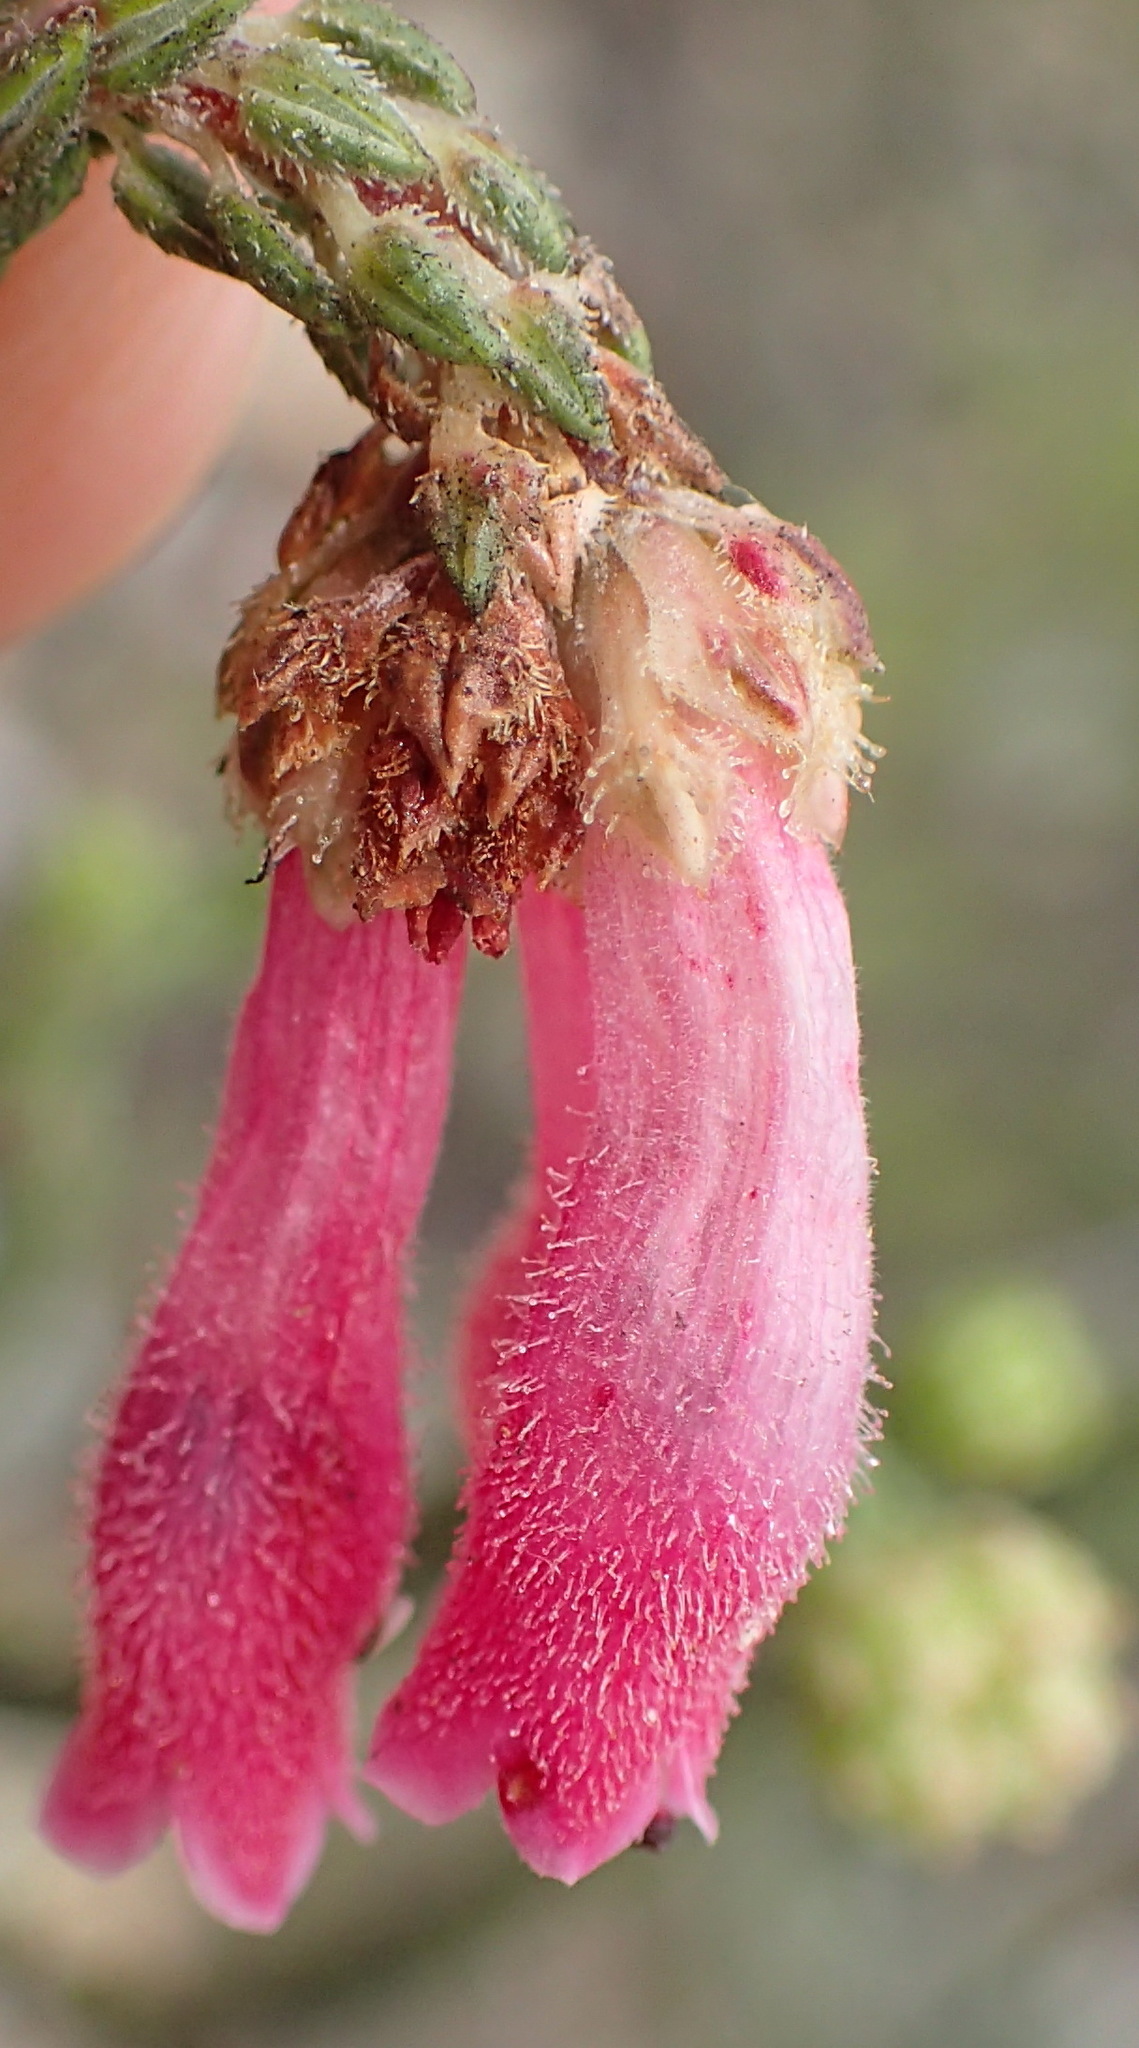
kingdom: Plantae
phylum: Tracheophyta
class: Magnoliopsida
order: Ericales
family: Ericaceae
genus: Erica
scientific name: Erica pectinifolia
